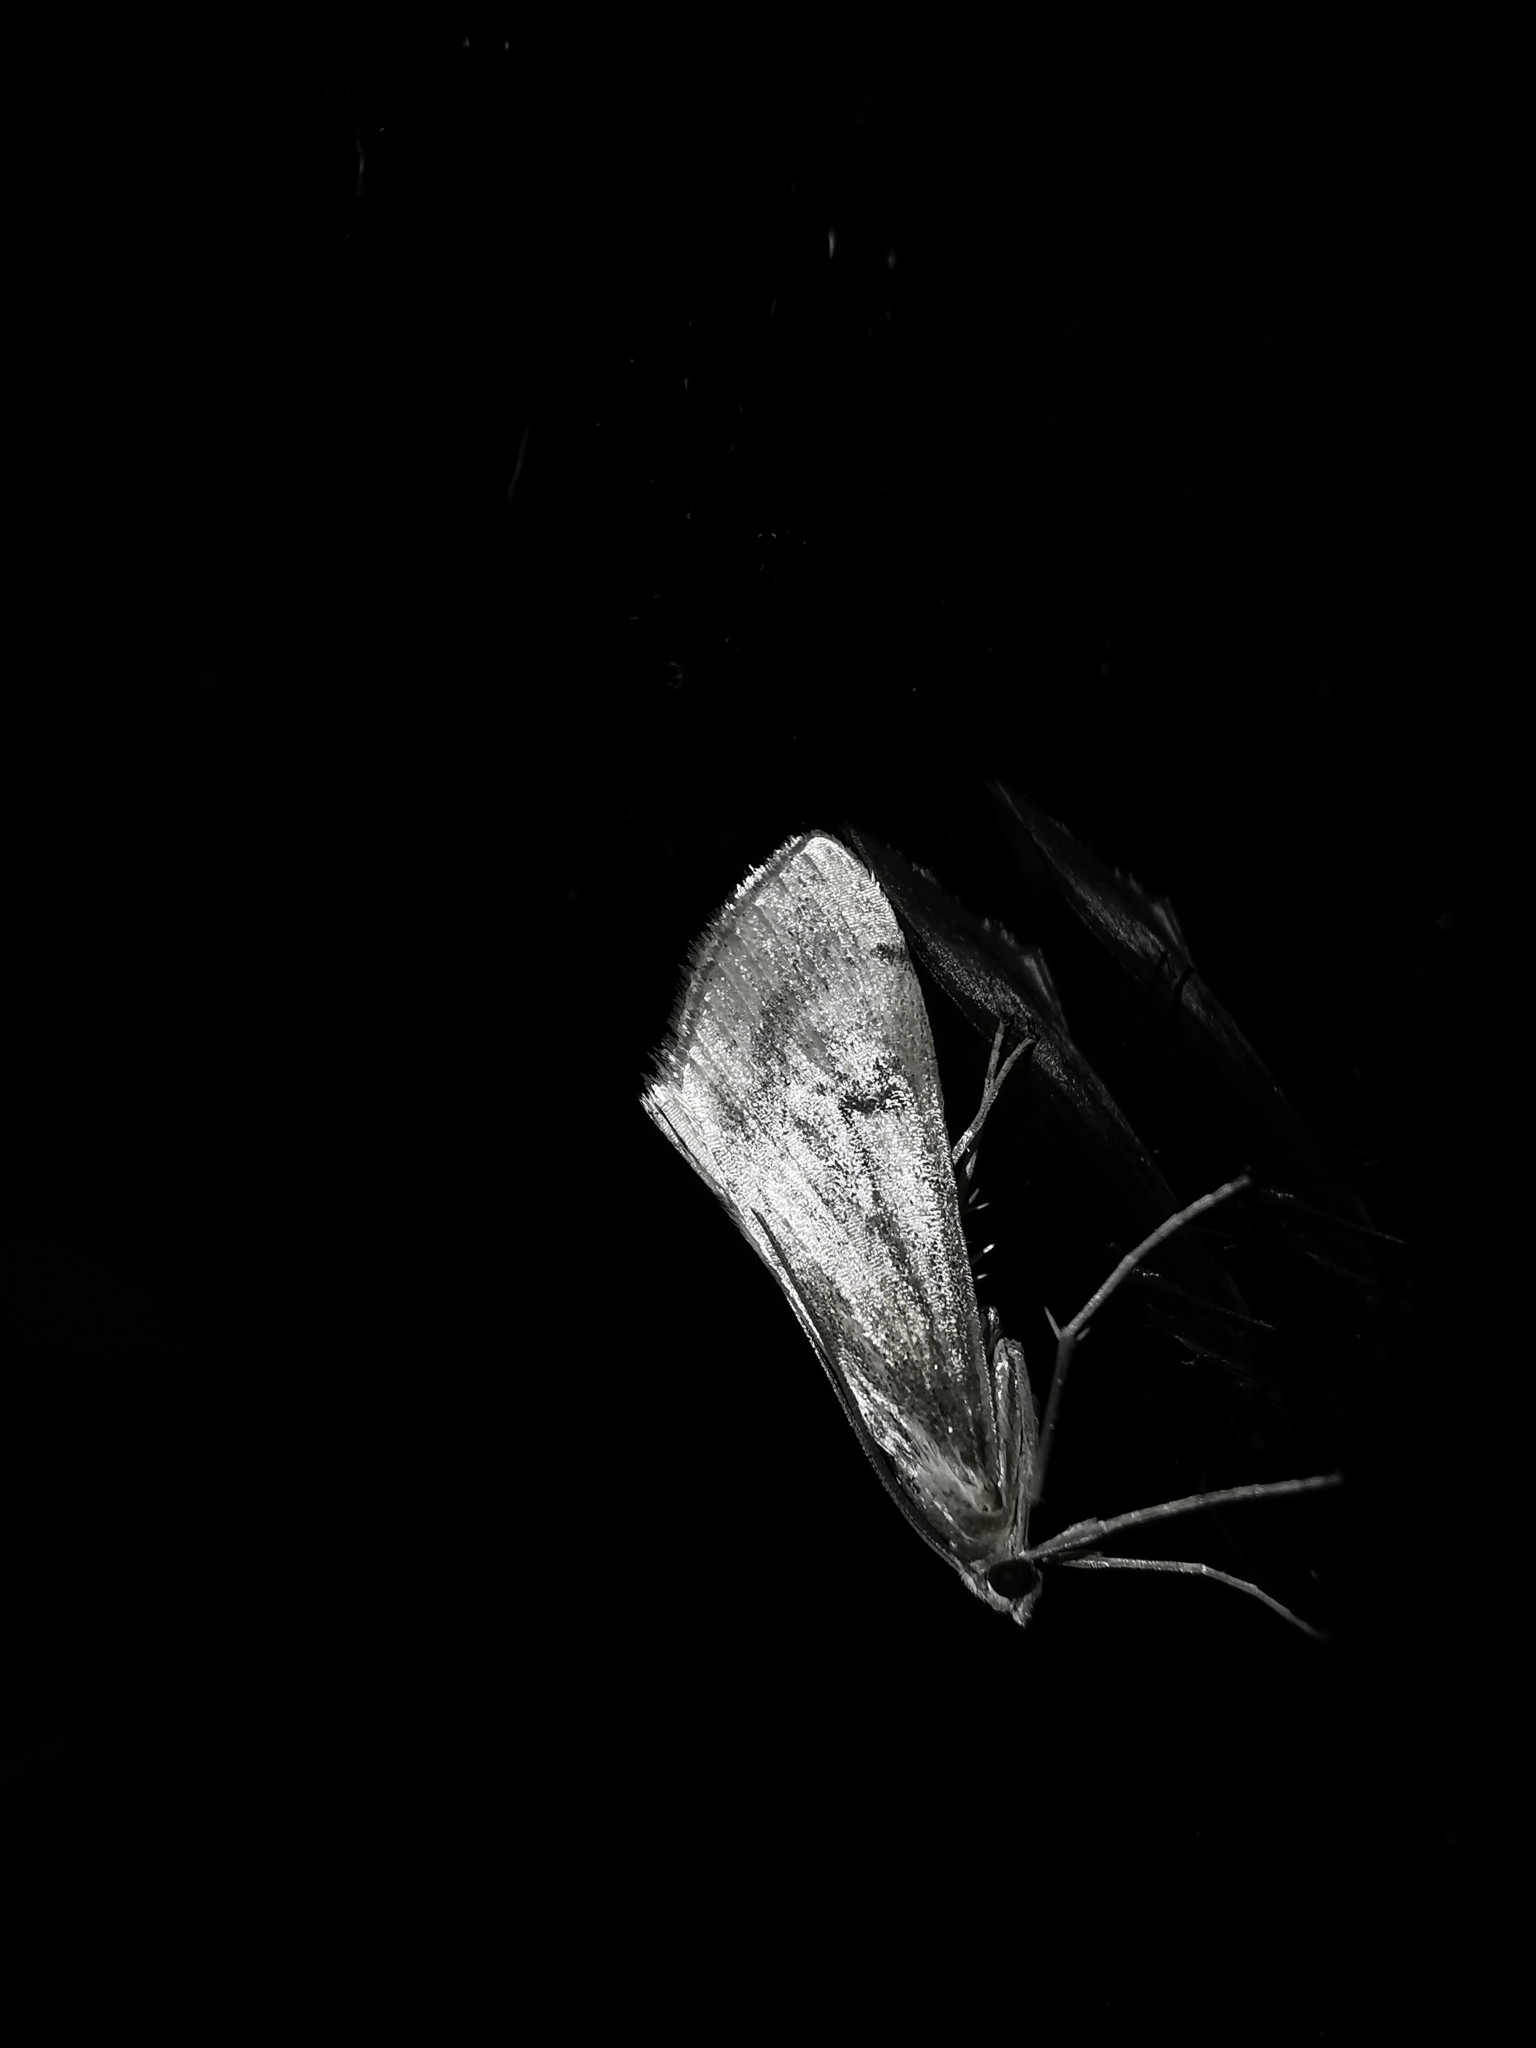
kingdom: Animalia
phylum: Arthropoda
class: Insecta
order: Lepidoptera
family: Crambidae
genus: Evergestis
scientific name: Evergestis isatidalis
